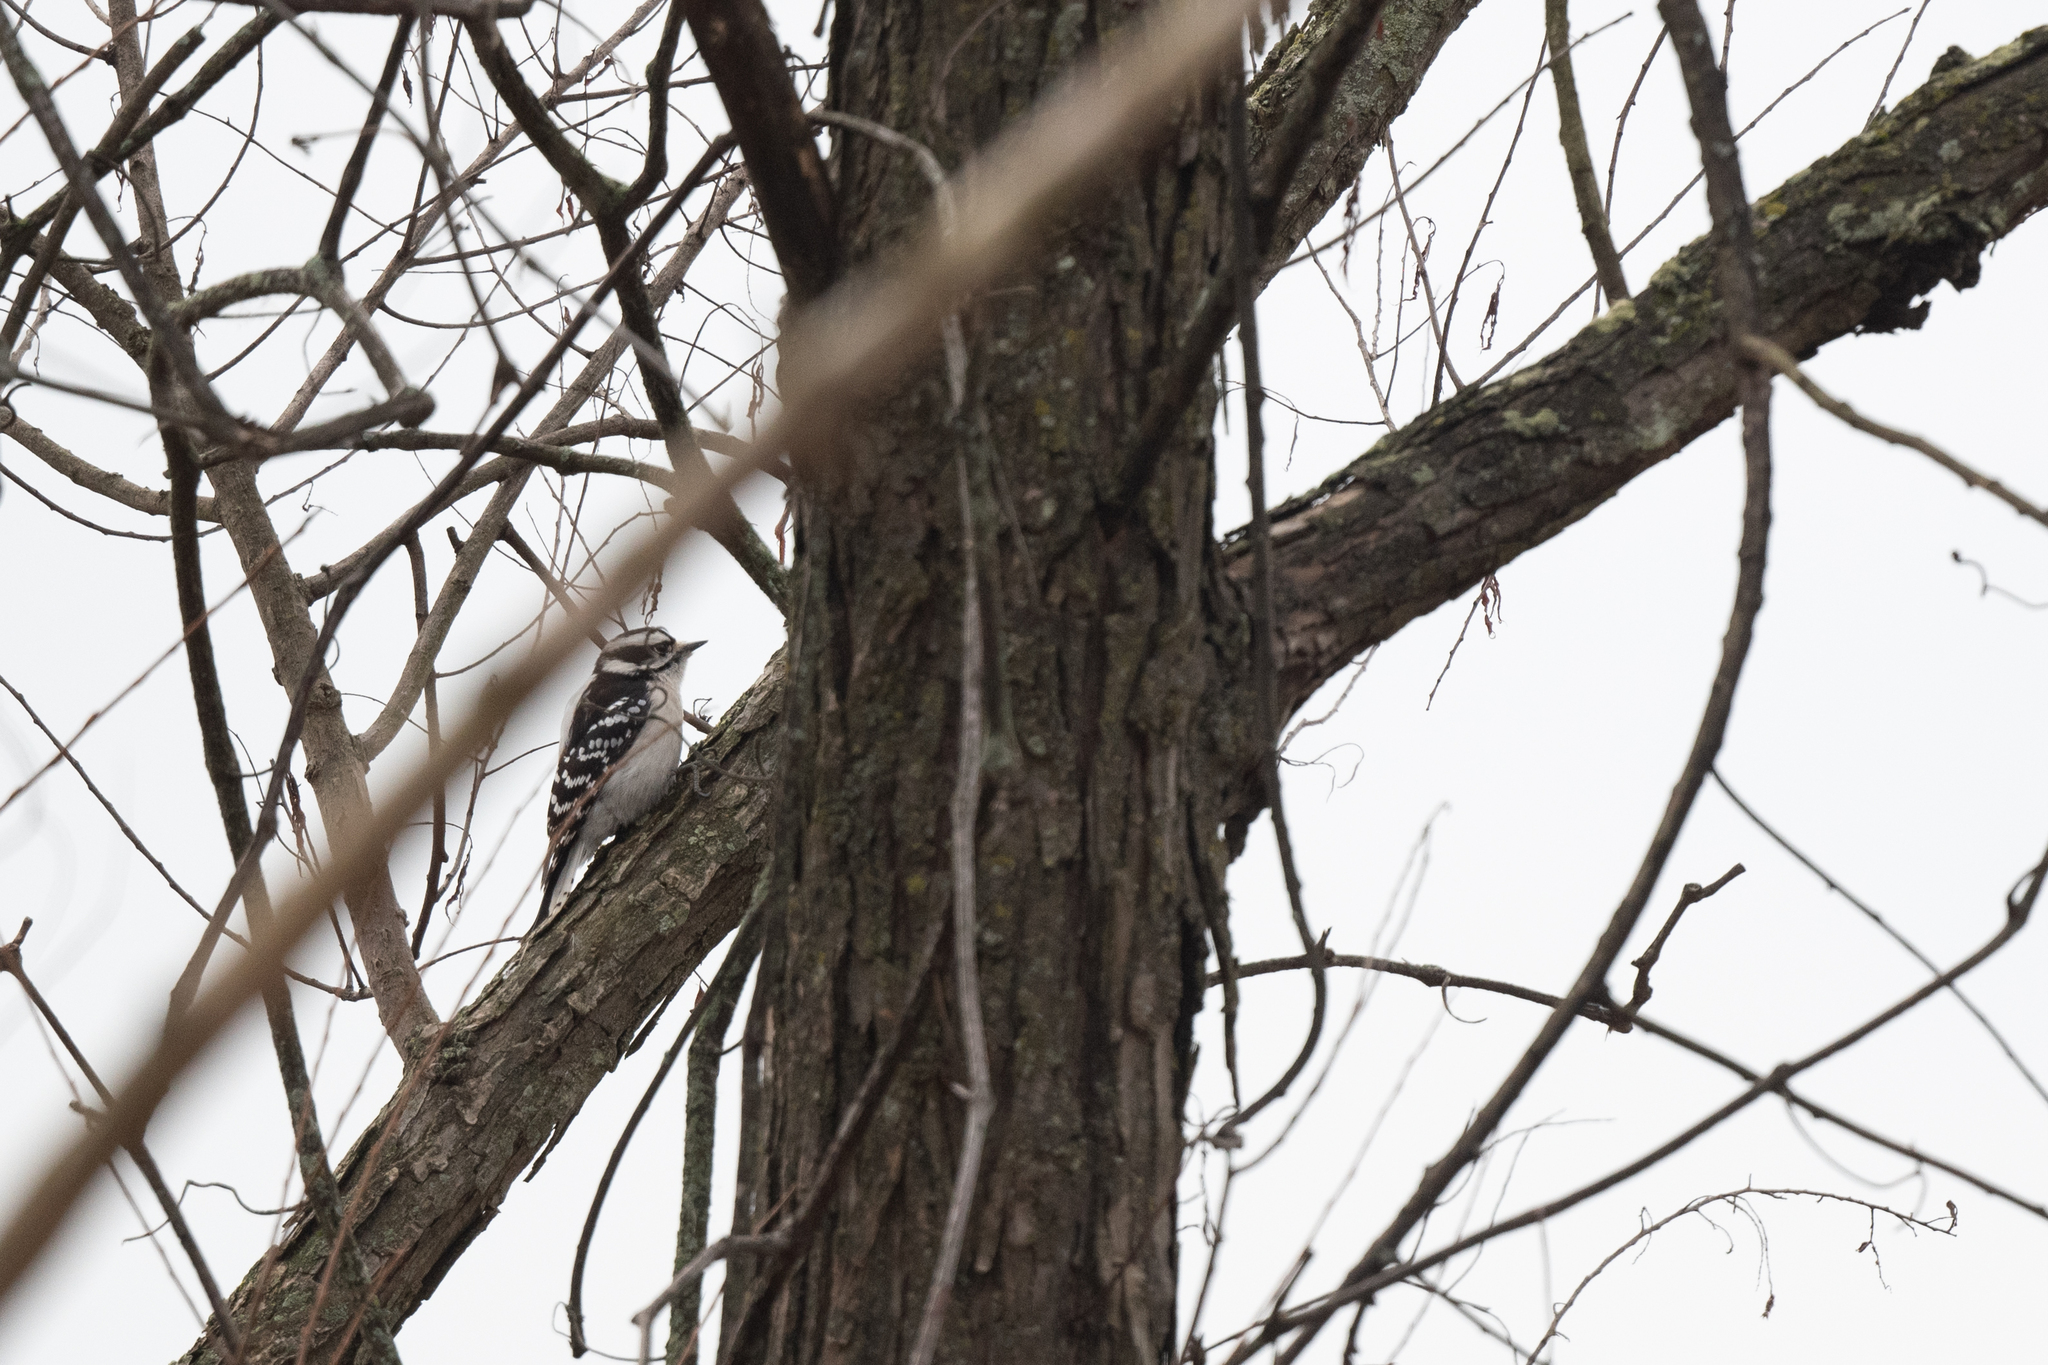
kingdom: Animalia
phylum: Chordata
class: Aves
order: Piciformes
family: Picidae
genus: Dryobates
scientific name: Dryobates pubescens
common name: Downy woodpecker
